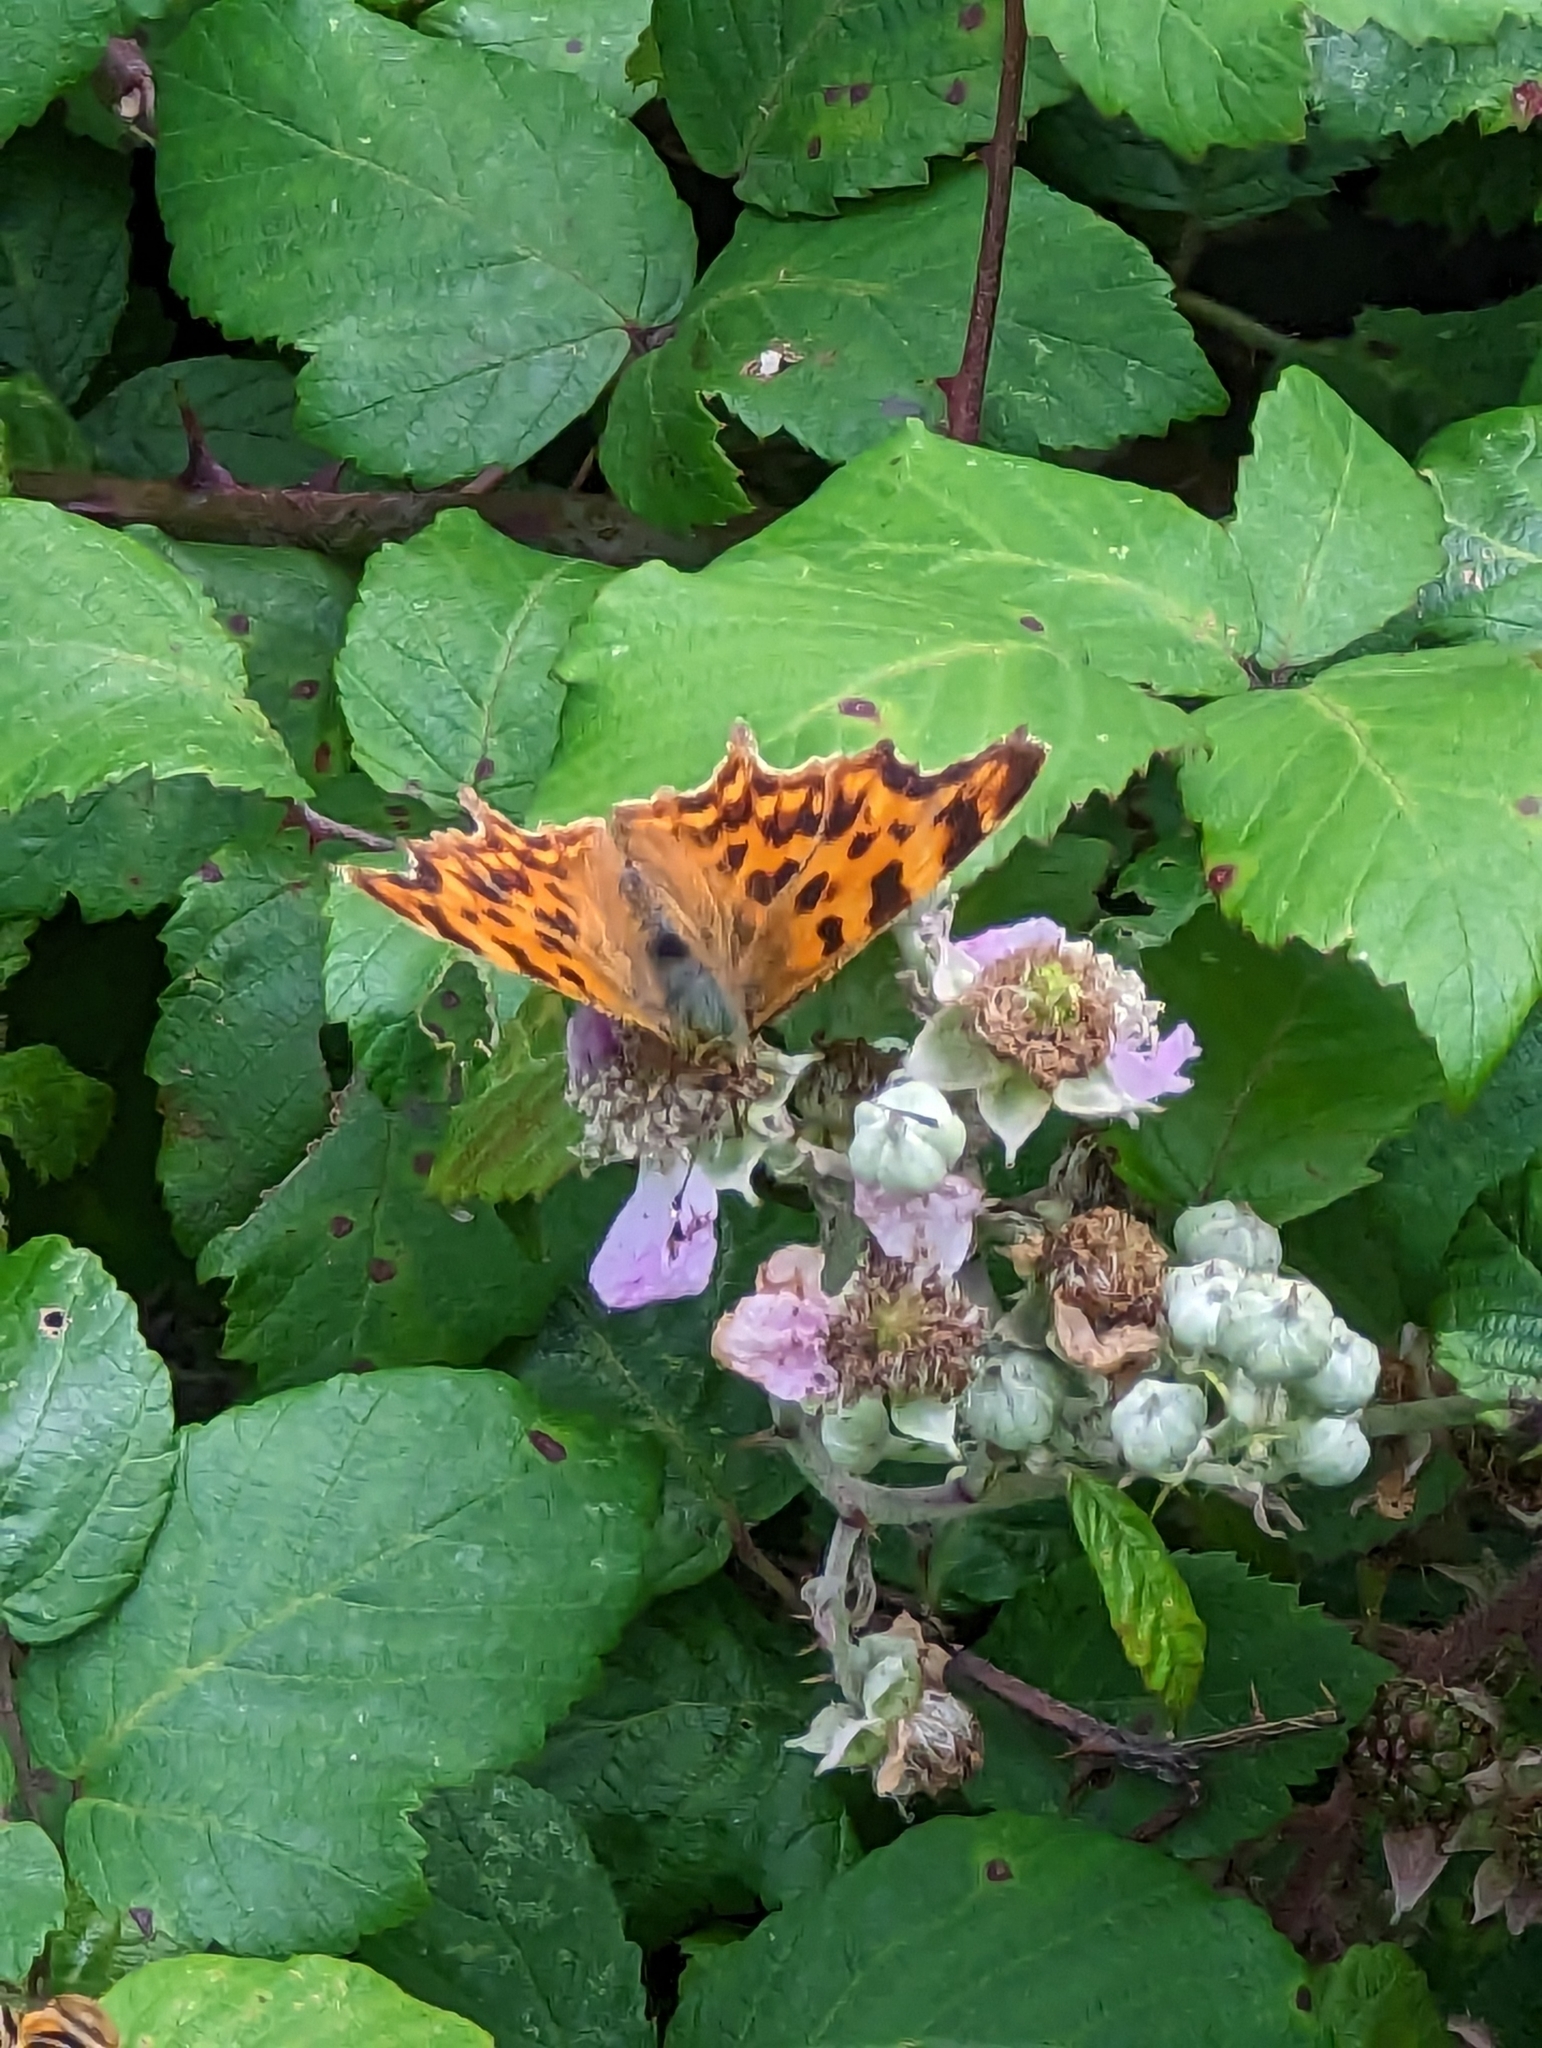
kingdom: Animalia
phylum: Arthropoda
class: Insecta
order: Lepidoptera
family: Nymphalidae
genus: Polygonia
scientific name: Polygonia c-album
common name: Comma
